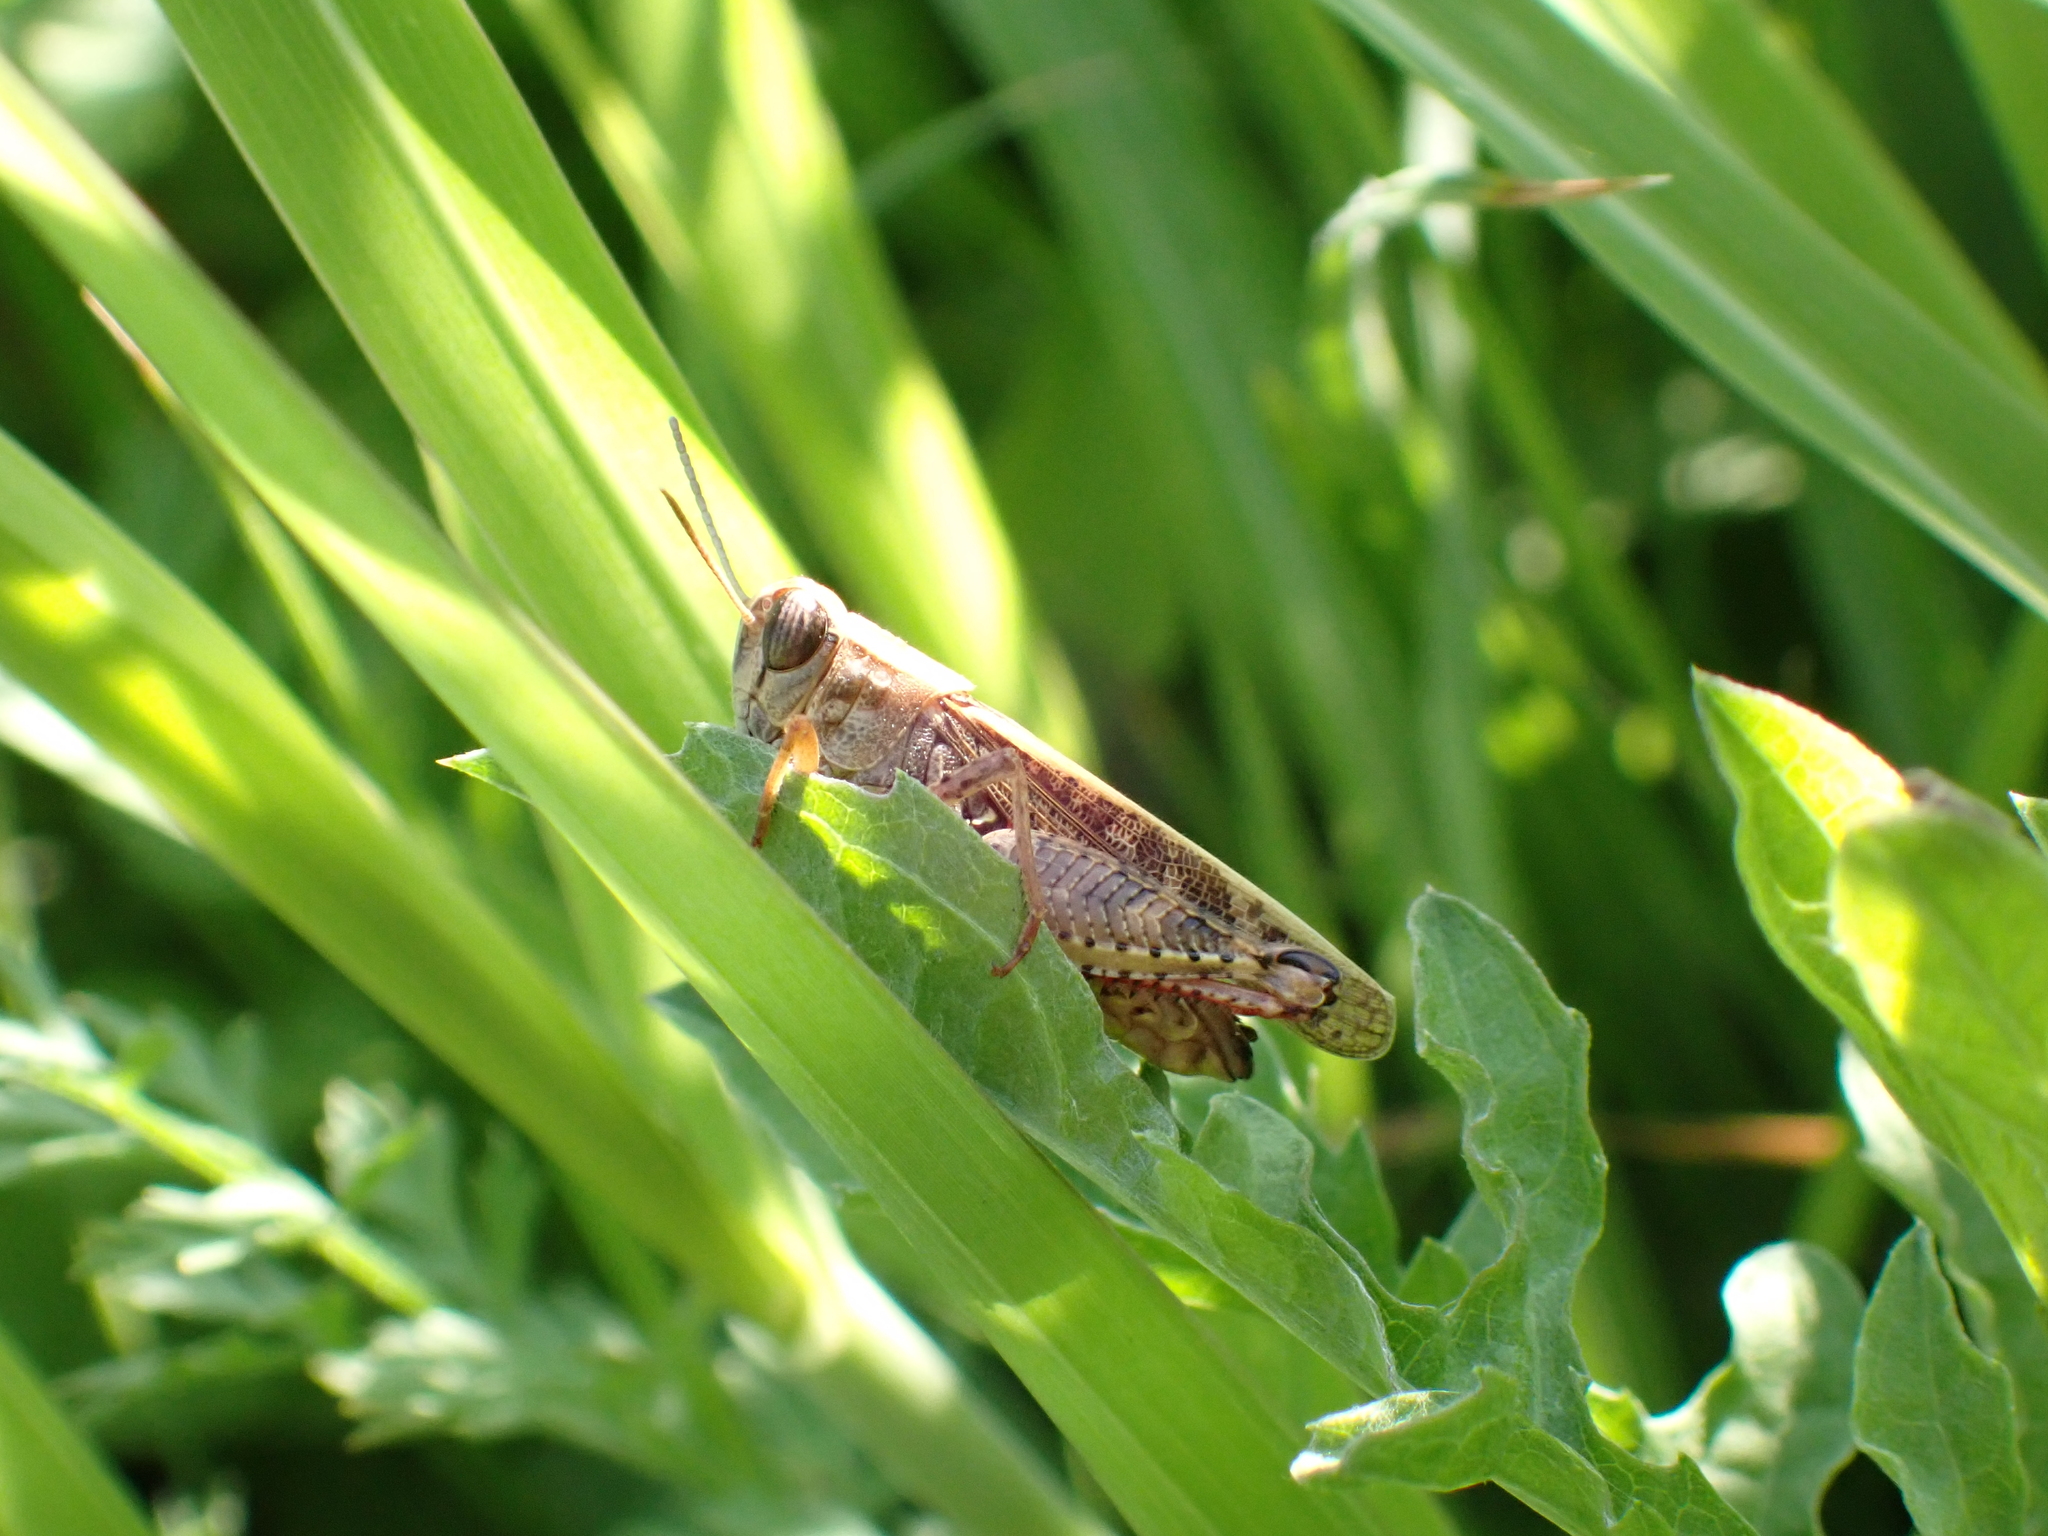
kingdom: Animalia
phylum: Arthropoda
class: Insecta
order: Orthoptera
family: Acrididae
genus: Calliptamus
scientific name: Calliptamus italicus
